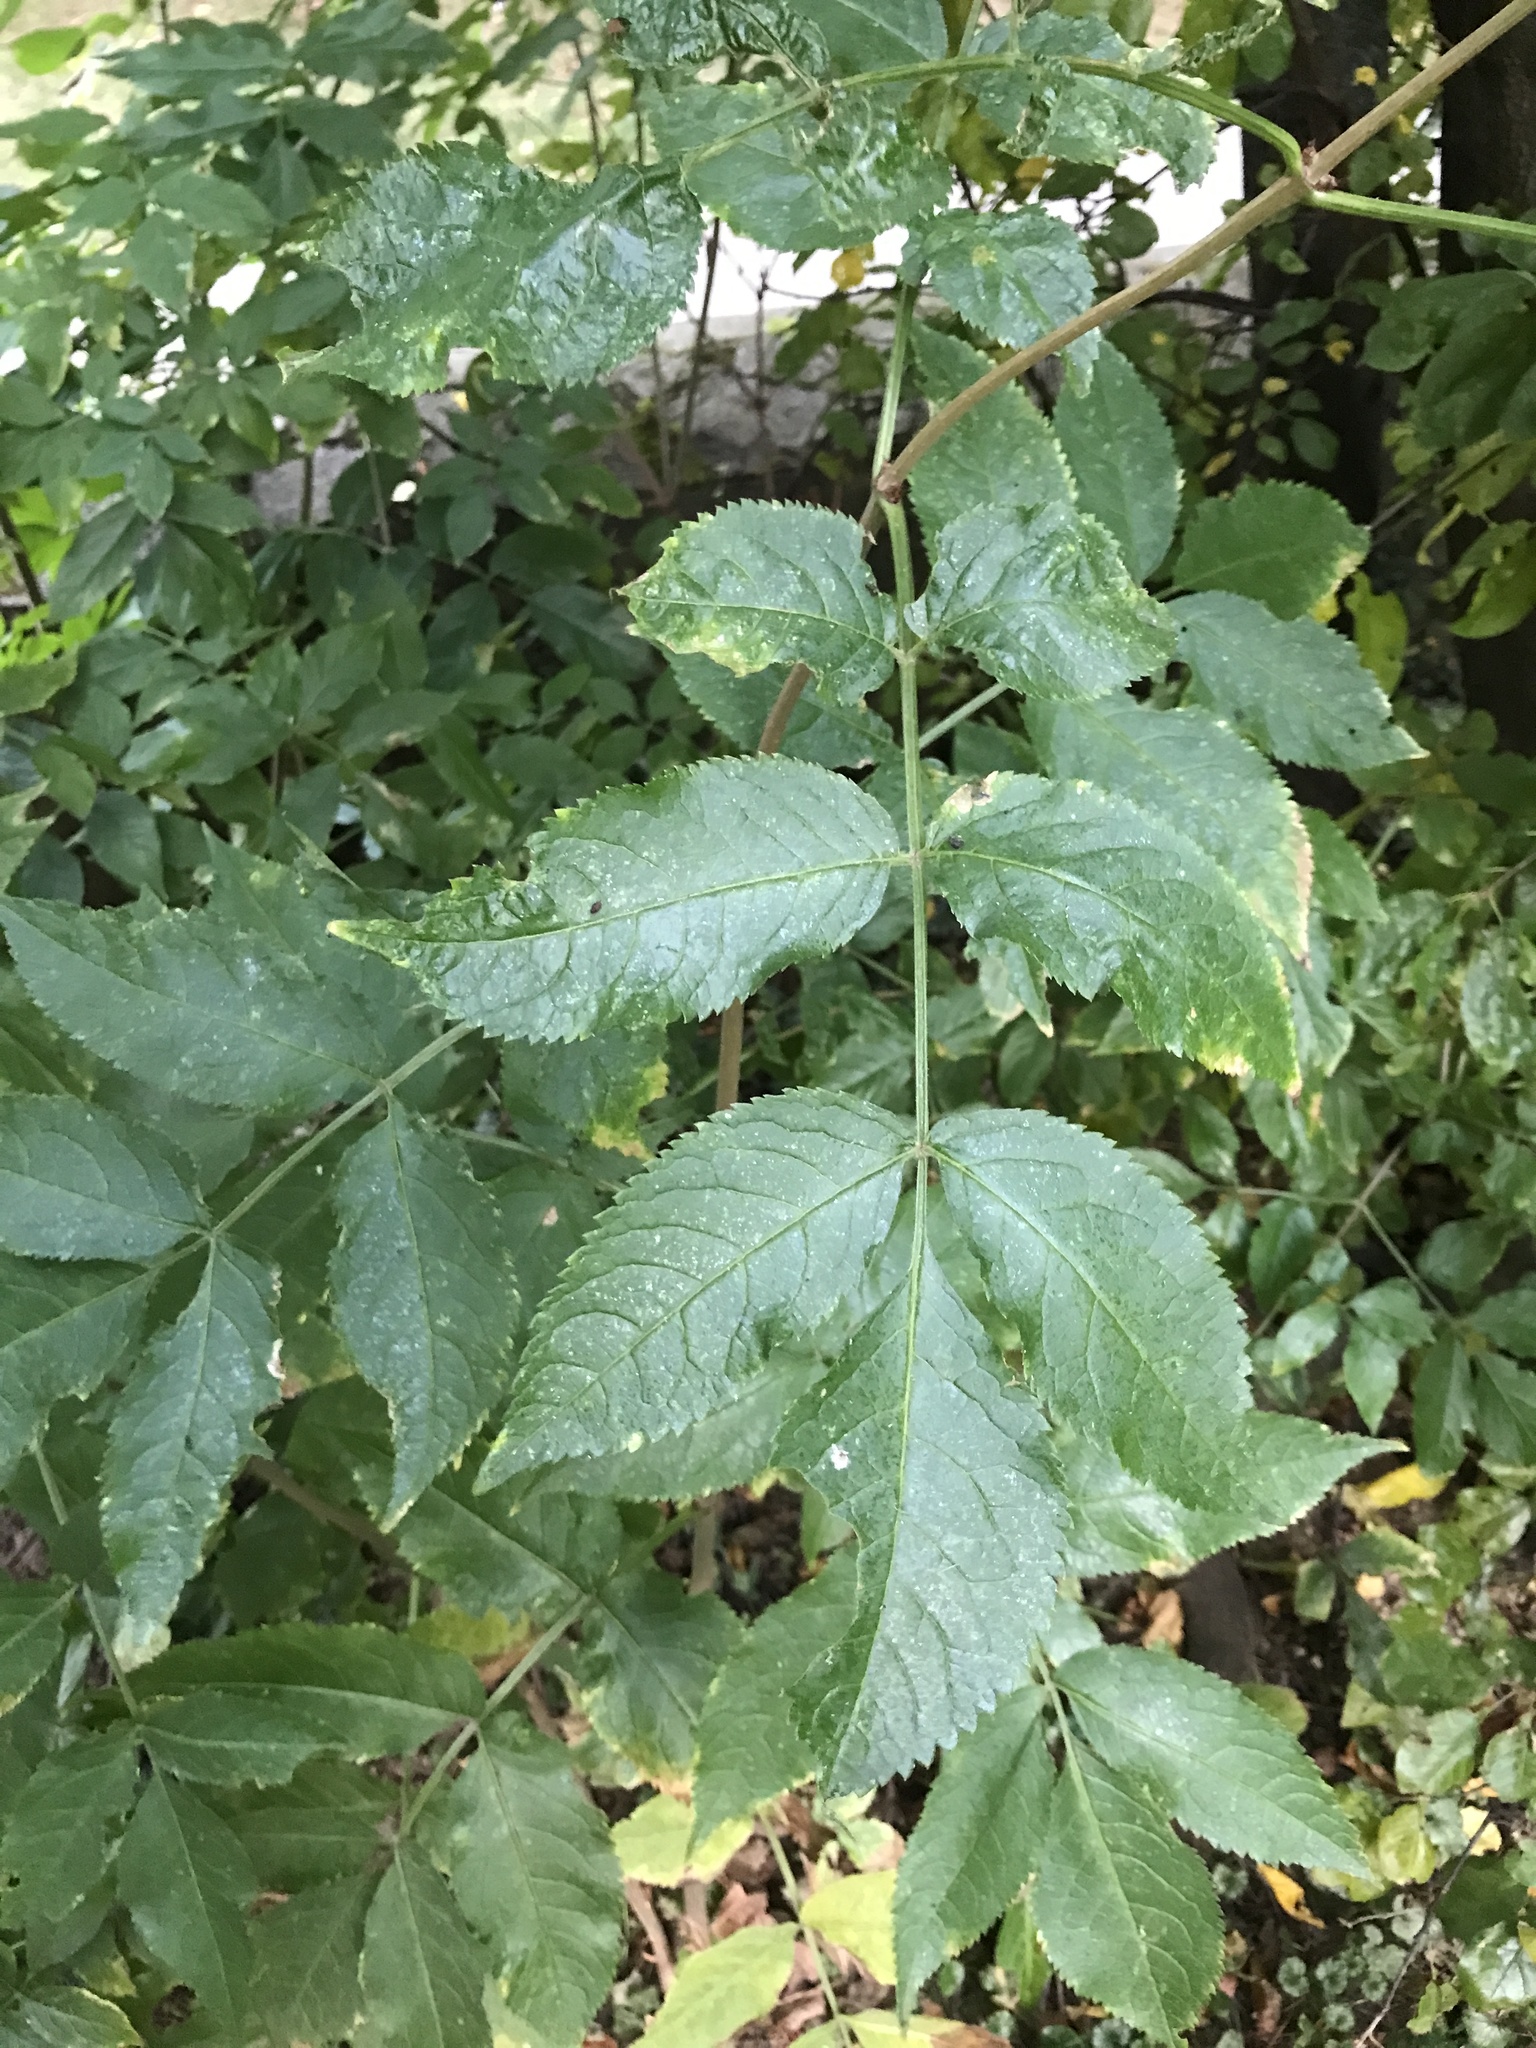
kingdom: Plantae
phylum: Tracheophyta
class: Magnoliopsida
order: Dipsacales
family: Viburnaceae
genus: Sambucus
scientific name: Sambucus nigra
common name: Elder
